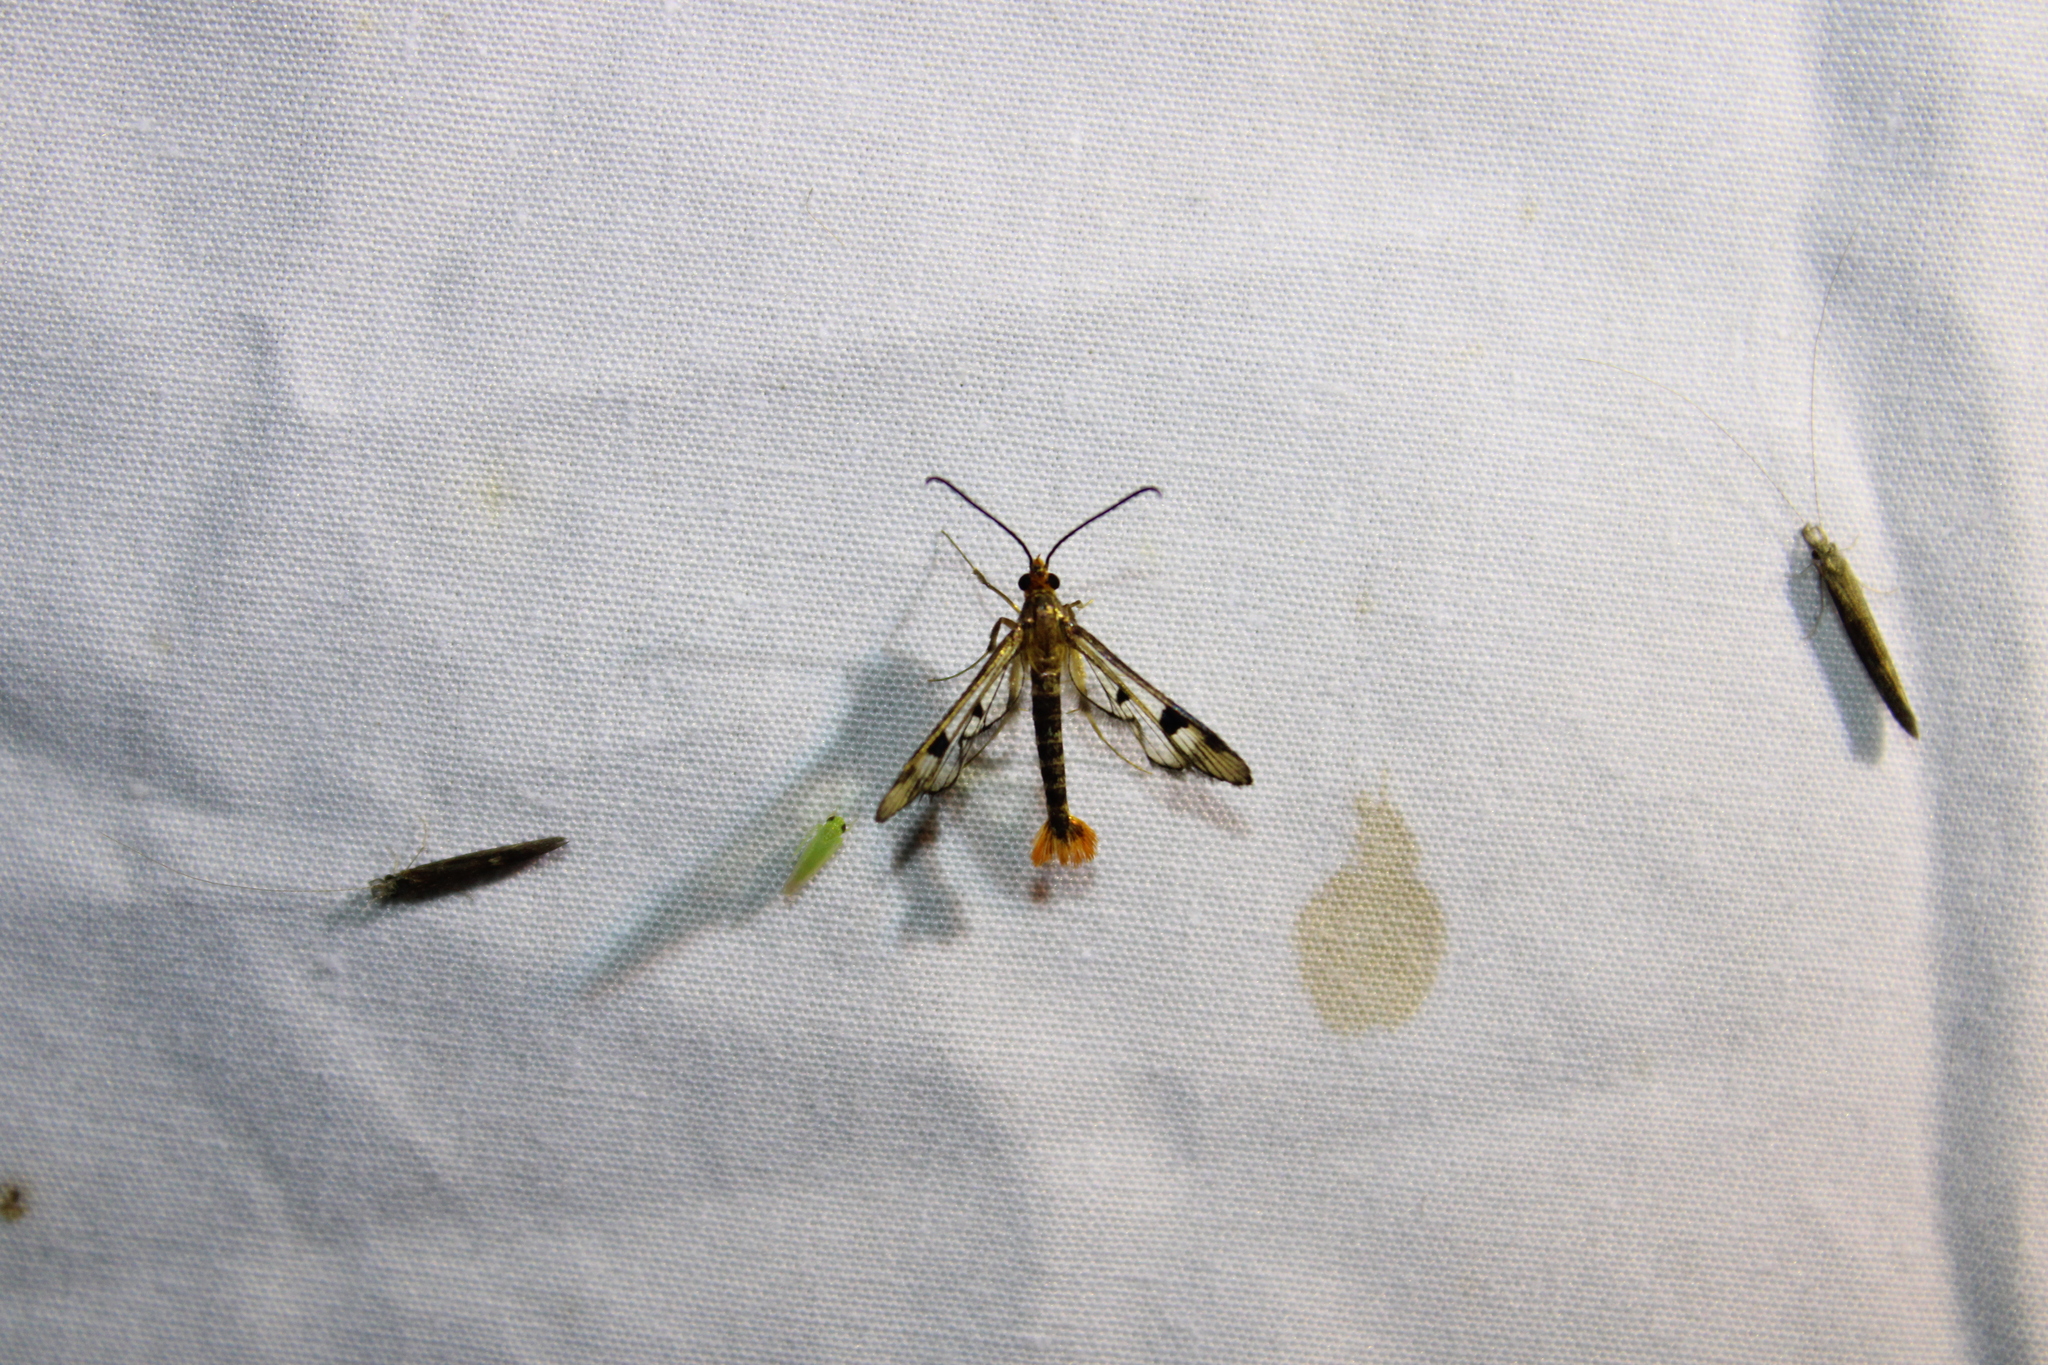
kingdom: Animalia
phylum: Arthropoda
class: Insecta
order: Lepidoptera
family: Sesiidae
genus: Synanthedon
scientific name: Synanthedon acerni
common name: Maple callus borer moth
